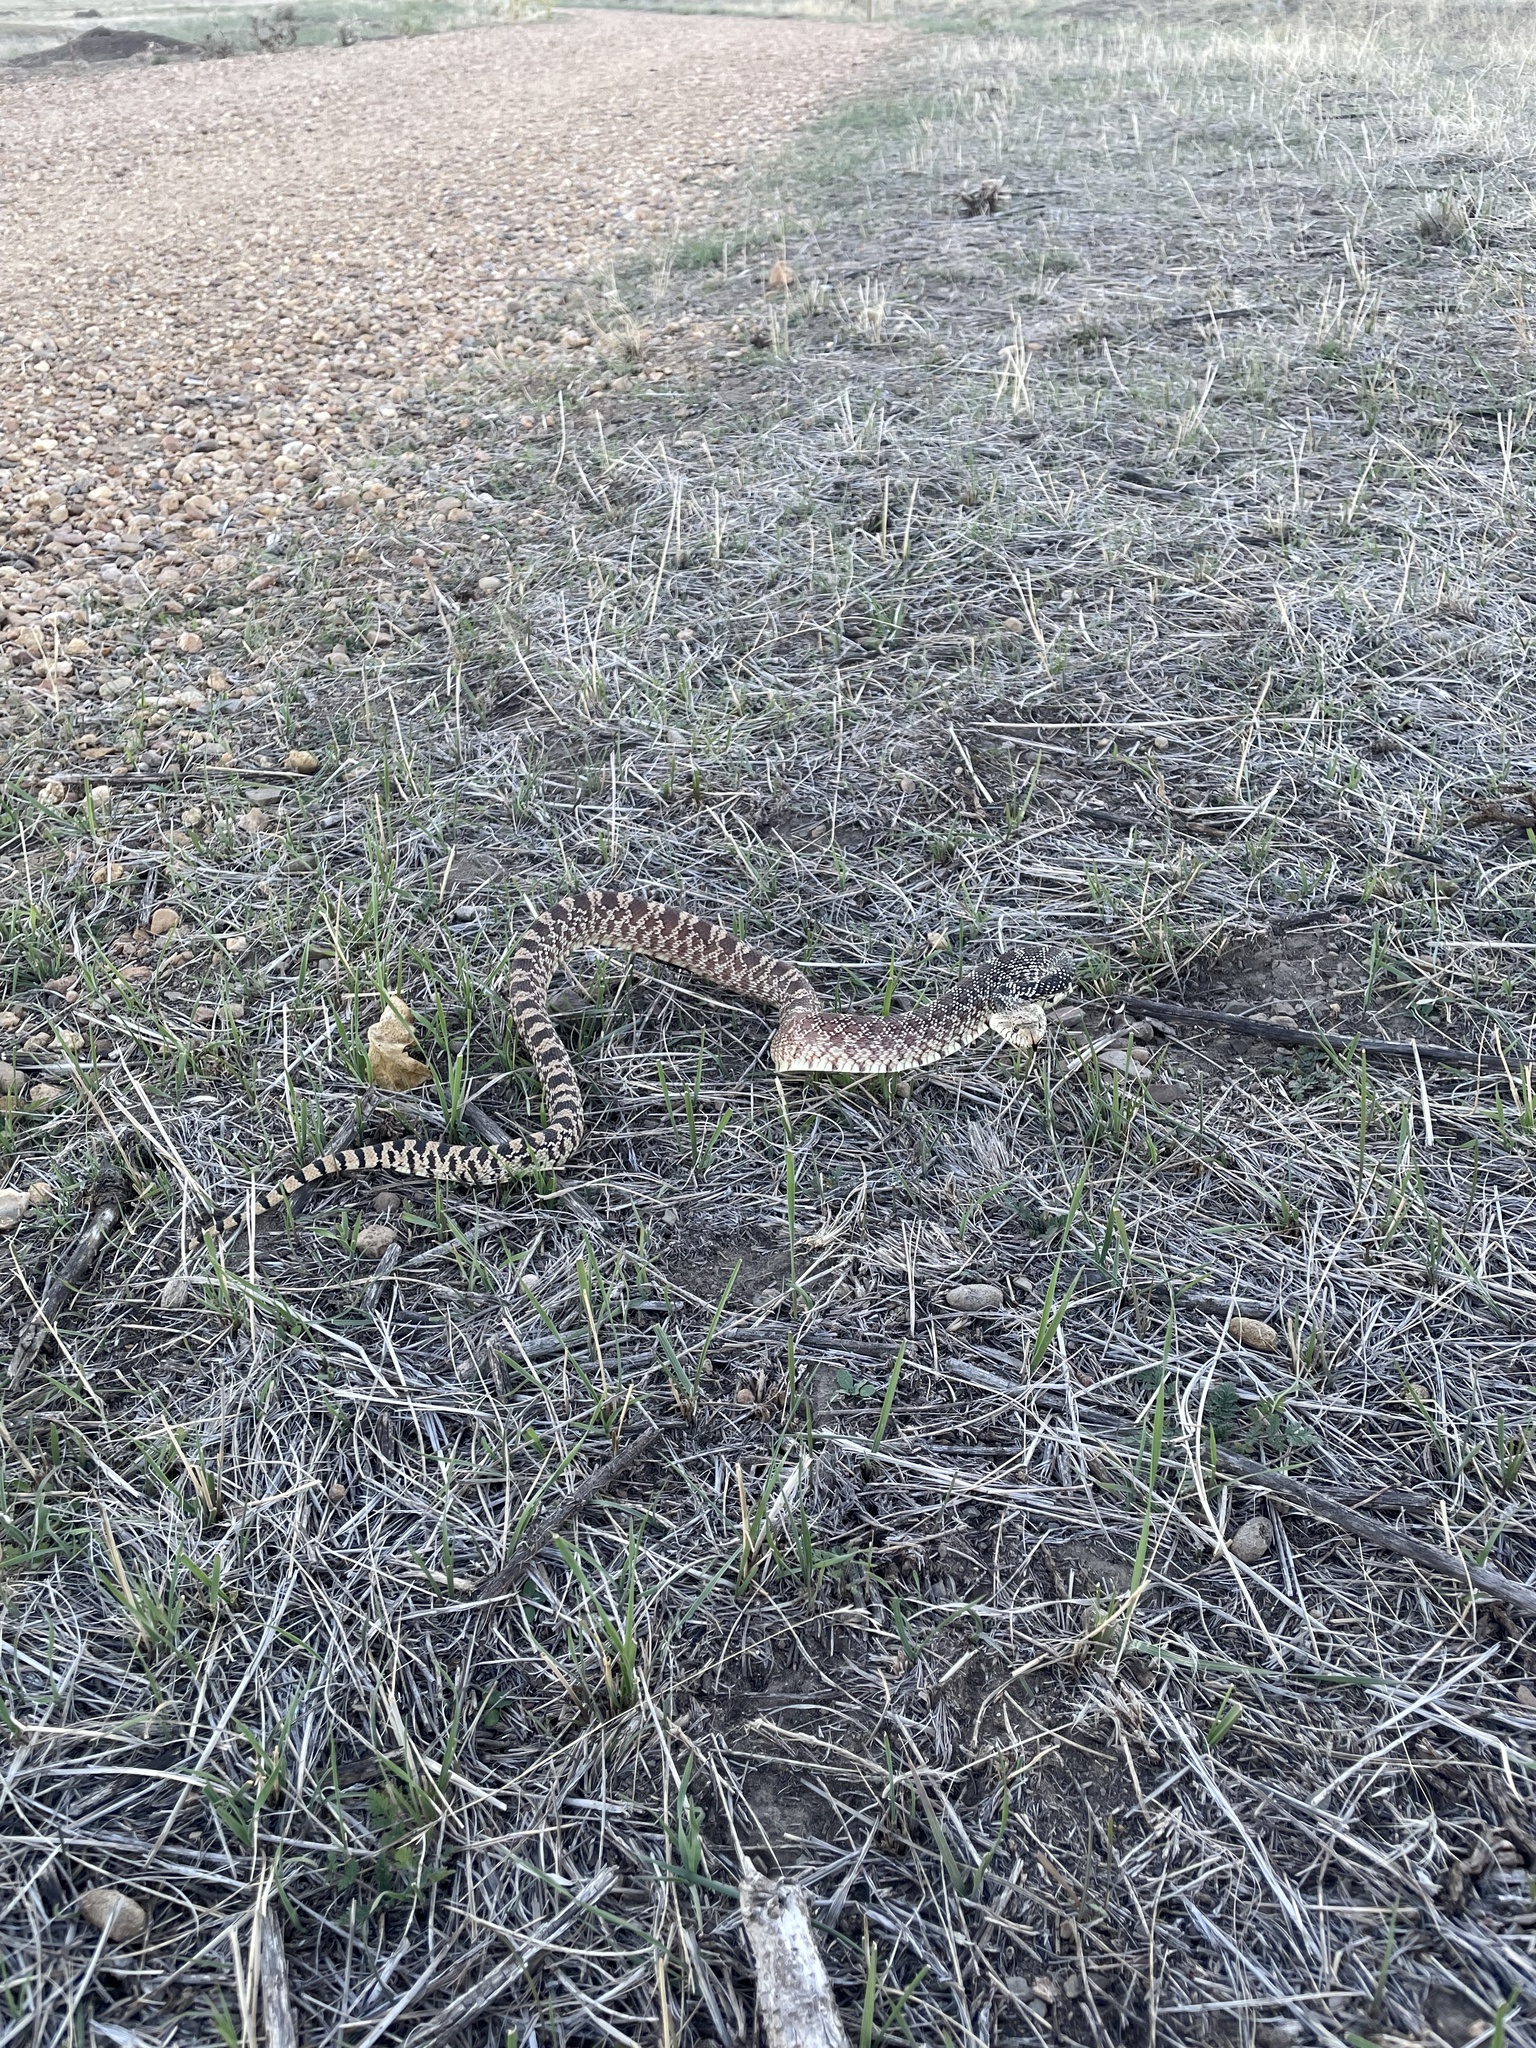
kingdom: Animalia
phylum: Chordata
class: Squamata
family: Colubridae
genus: Pituophis
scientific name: Pituophis catenifer
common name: Gopher snake
